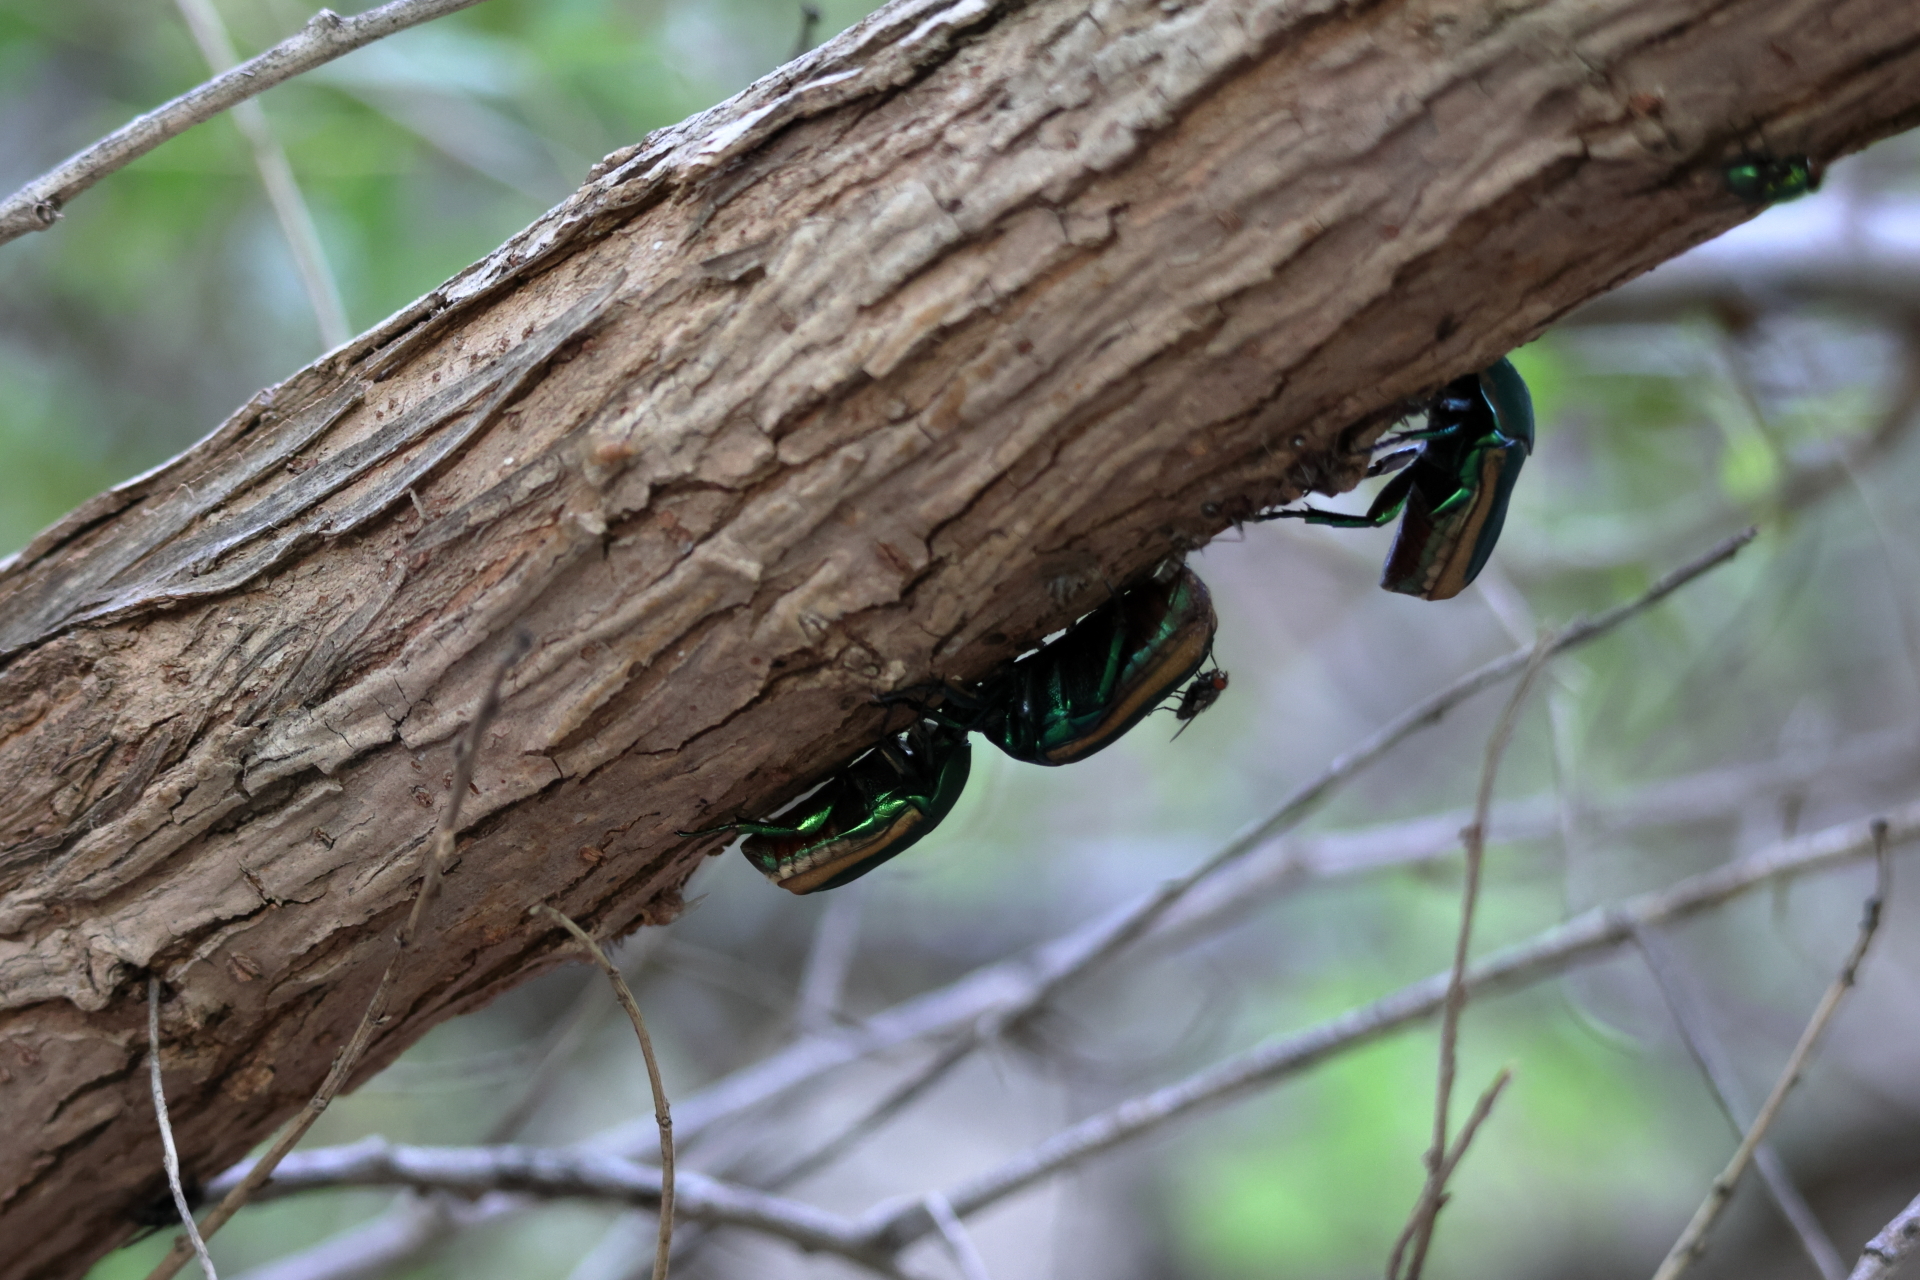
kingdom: Animalia
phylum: Arthropoda
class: Insecta
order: Coleoptera
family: Scarabaeidae
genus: Cotinis
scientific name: Cotinis mutabilis
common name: Figeater beetle
